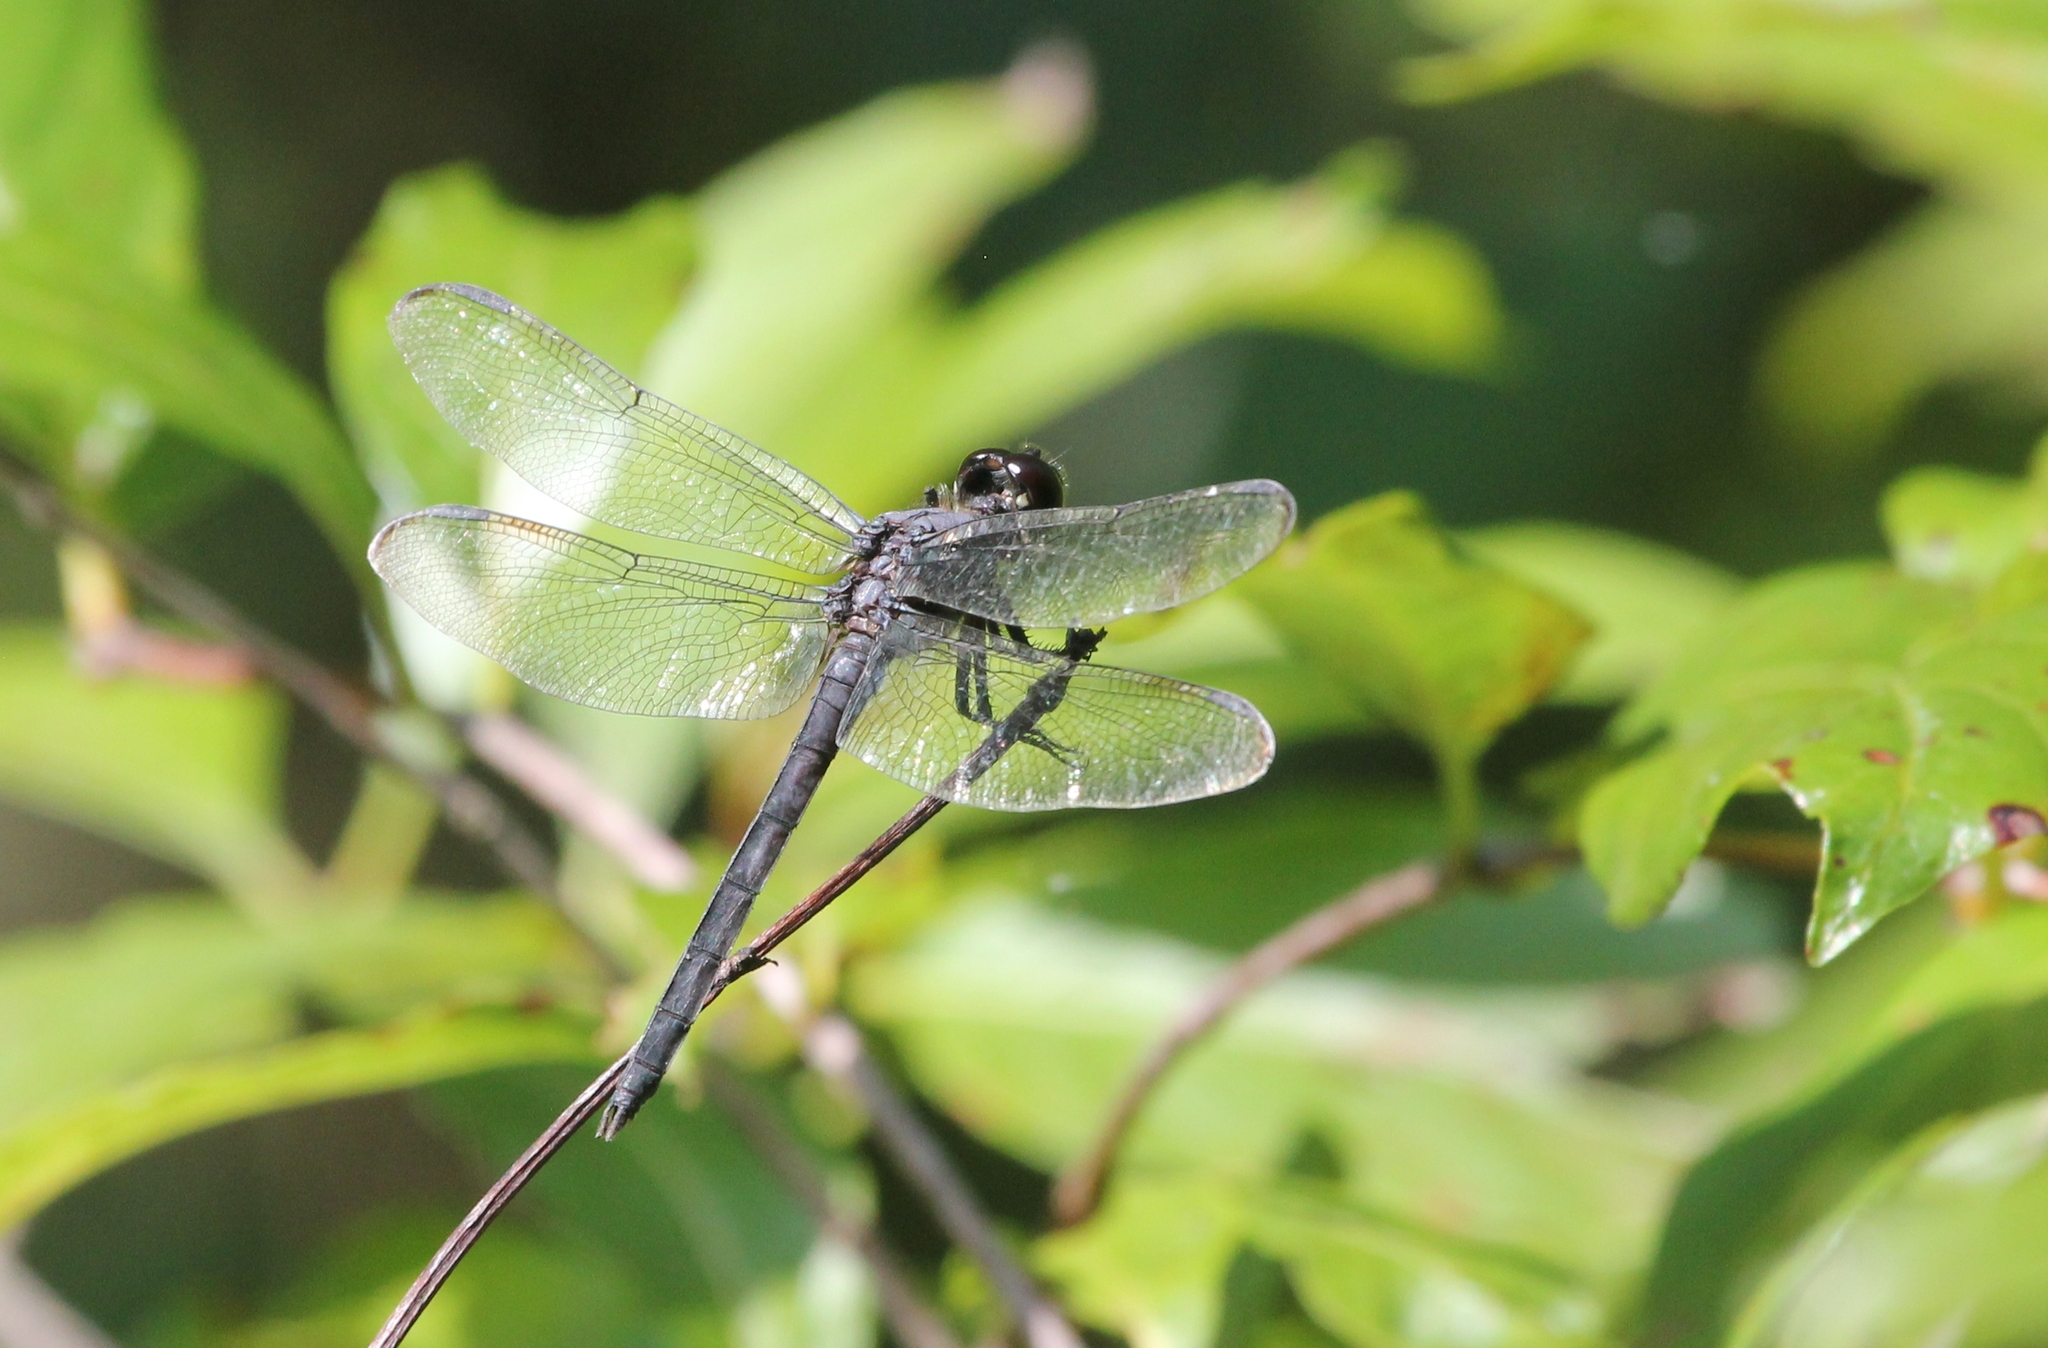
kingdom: Animalia
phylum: Arthropoda
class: Insecta
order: Odonata
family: Libellulidae
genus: Libellula
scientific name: Libellula incesta
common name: Slaty skimmer
